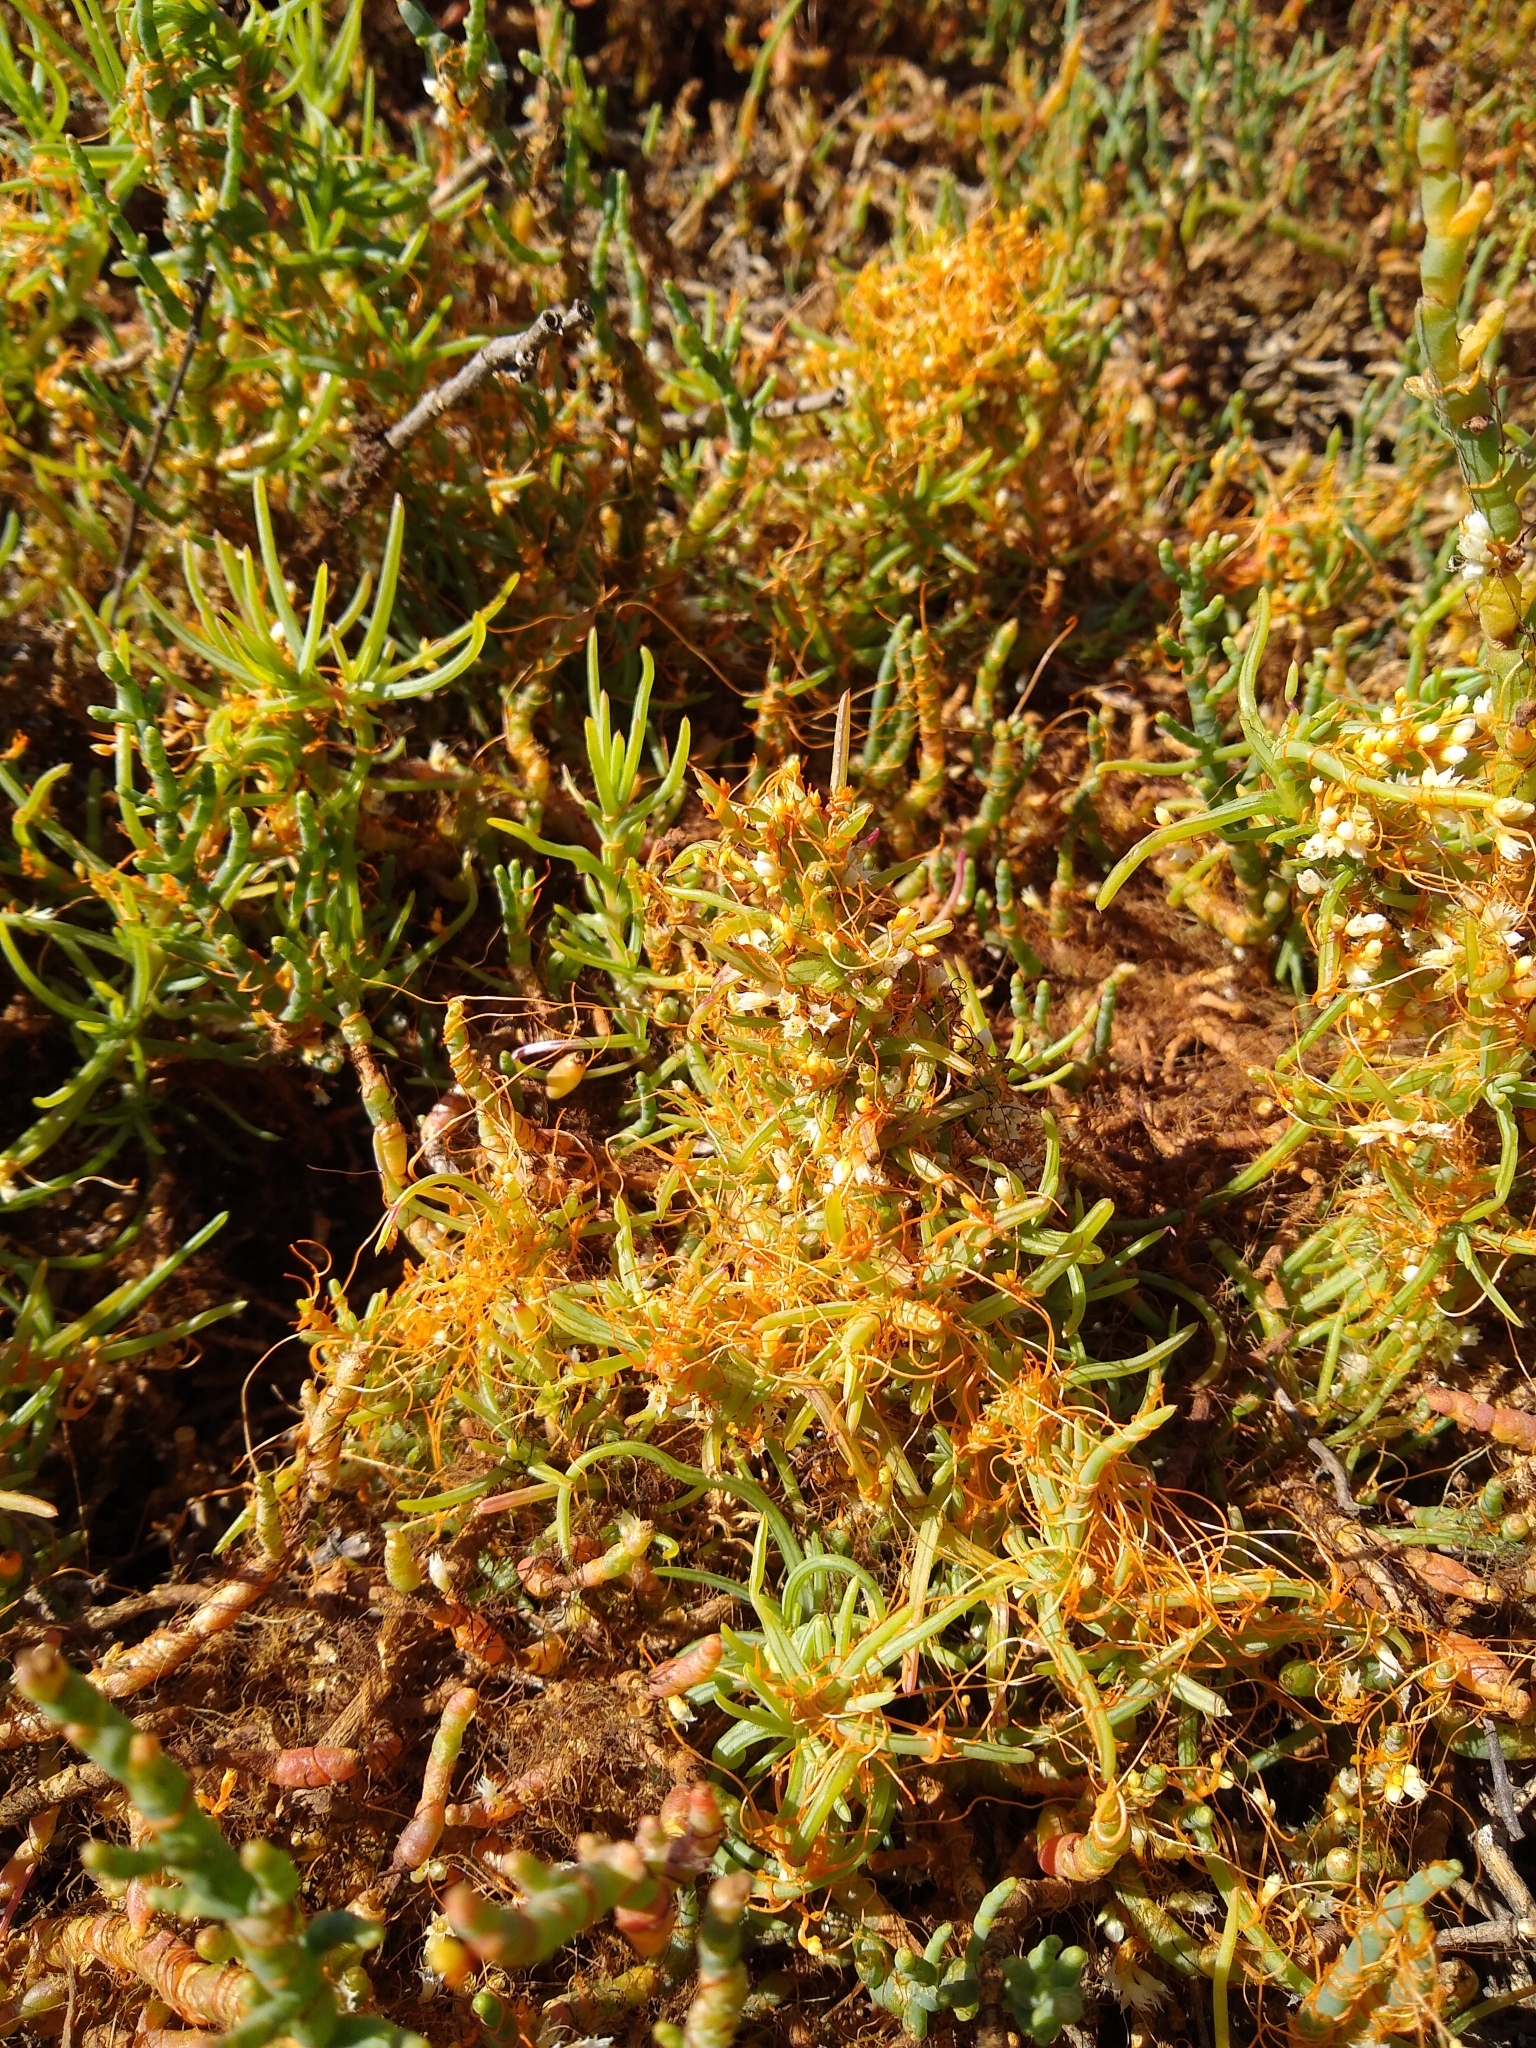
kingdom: Plantae
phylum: Tracheophyta
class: Magnoliopsida
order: Solanales
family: Convolvulaceae
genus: Cuscuta
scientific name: Cuscuta pacifica
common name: Large saltmarsh dodder
